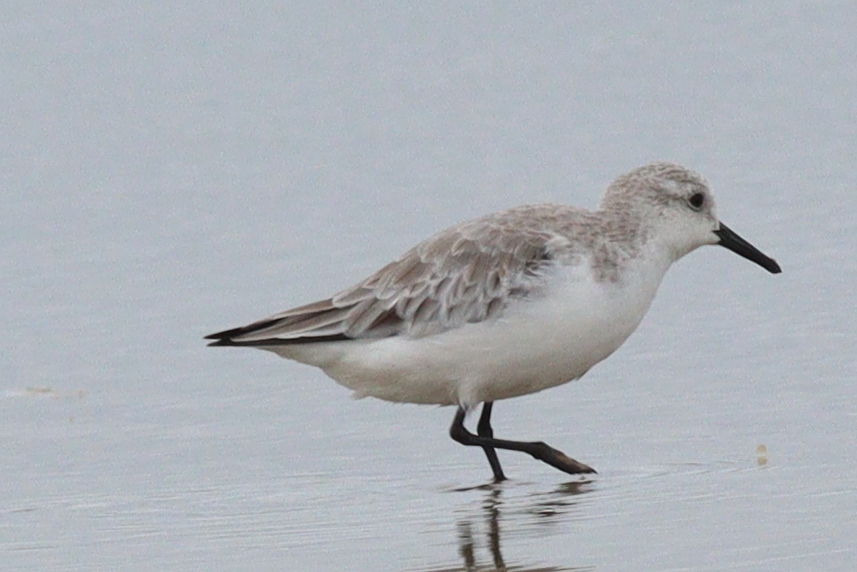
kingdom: Animalia
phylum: Chordata
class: Aves
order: Charadriiformes
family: Scolopacidae
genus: Calidris
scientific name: Calidris alba
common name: Sanderling
